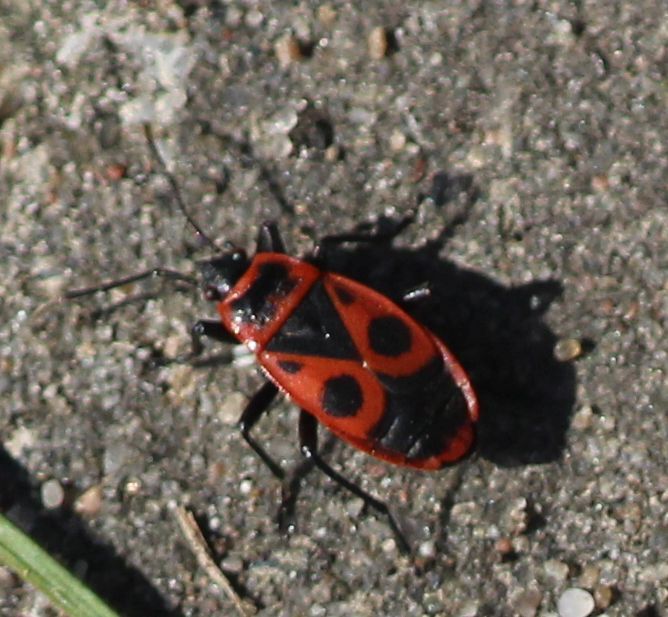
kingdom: Animalia
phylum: Arthropoda
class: Insecta
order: Hemiptera
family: Pyrrhocoridae
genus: Pyrrhocoris
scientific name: Pyrrhocoris apterus
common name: Firebug
